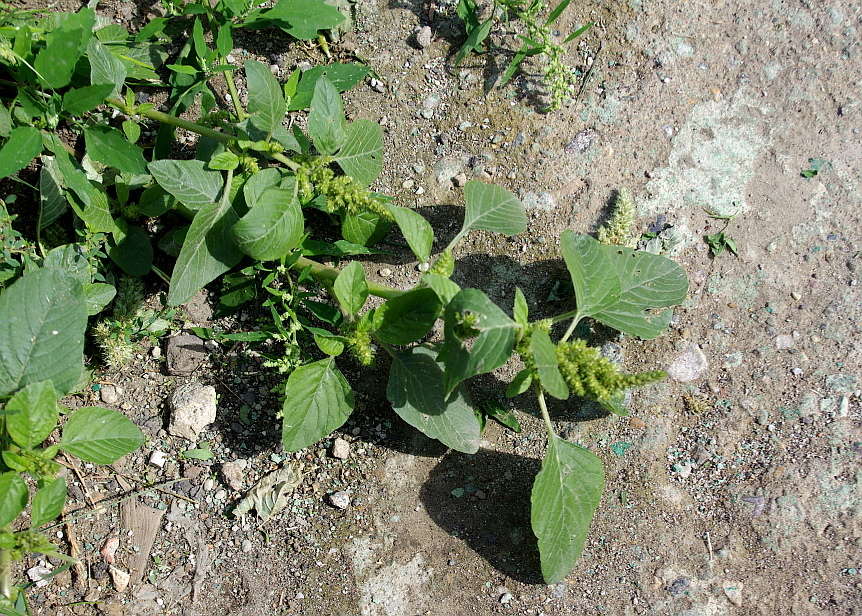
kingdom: Plantae
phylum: Tracheophyta
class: Magnoliopsida
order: Caryophyllales
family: Amaranthaceae
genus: Amaranthus
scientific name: Amaranthus retroflexus
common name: Redroot amaranth
